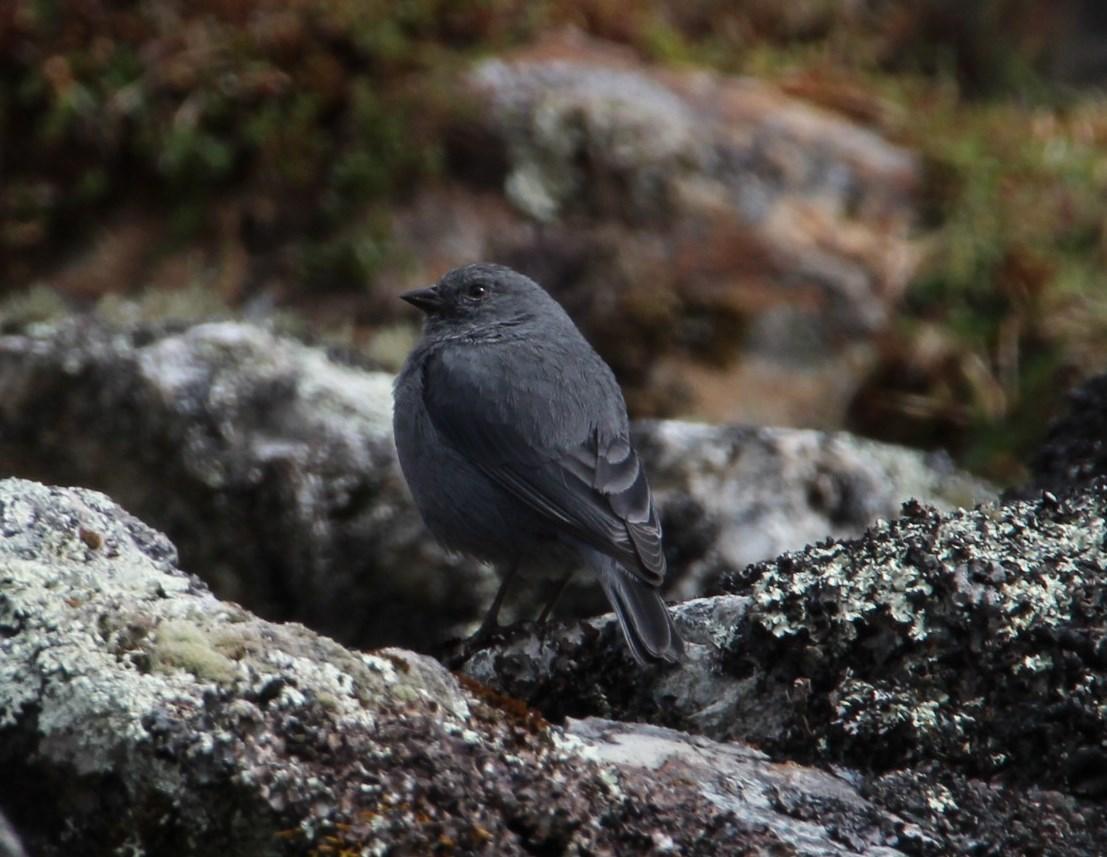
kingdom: Animalia
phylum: Chordata
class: Aves
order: Passeriformes
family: Thraupidae
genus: Geospizopsis
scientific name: Geospizopsis unicolor
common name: Plumbeous sierra-finch
